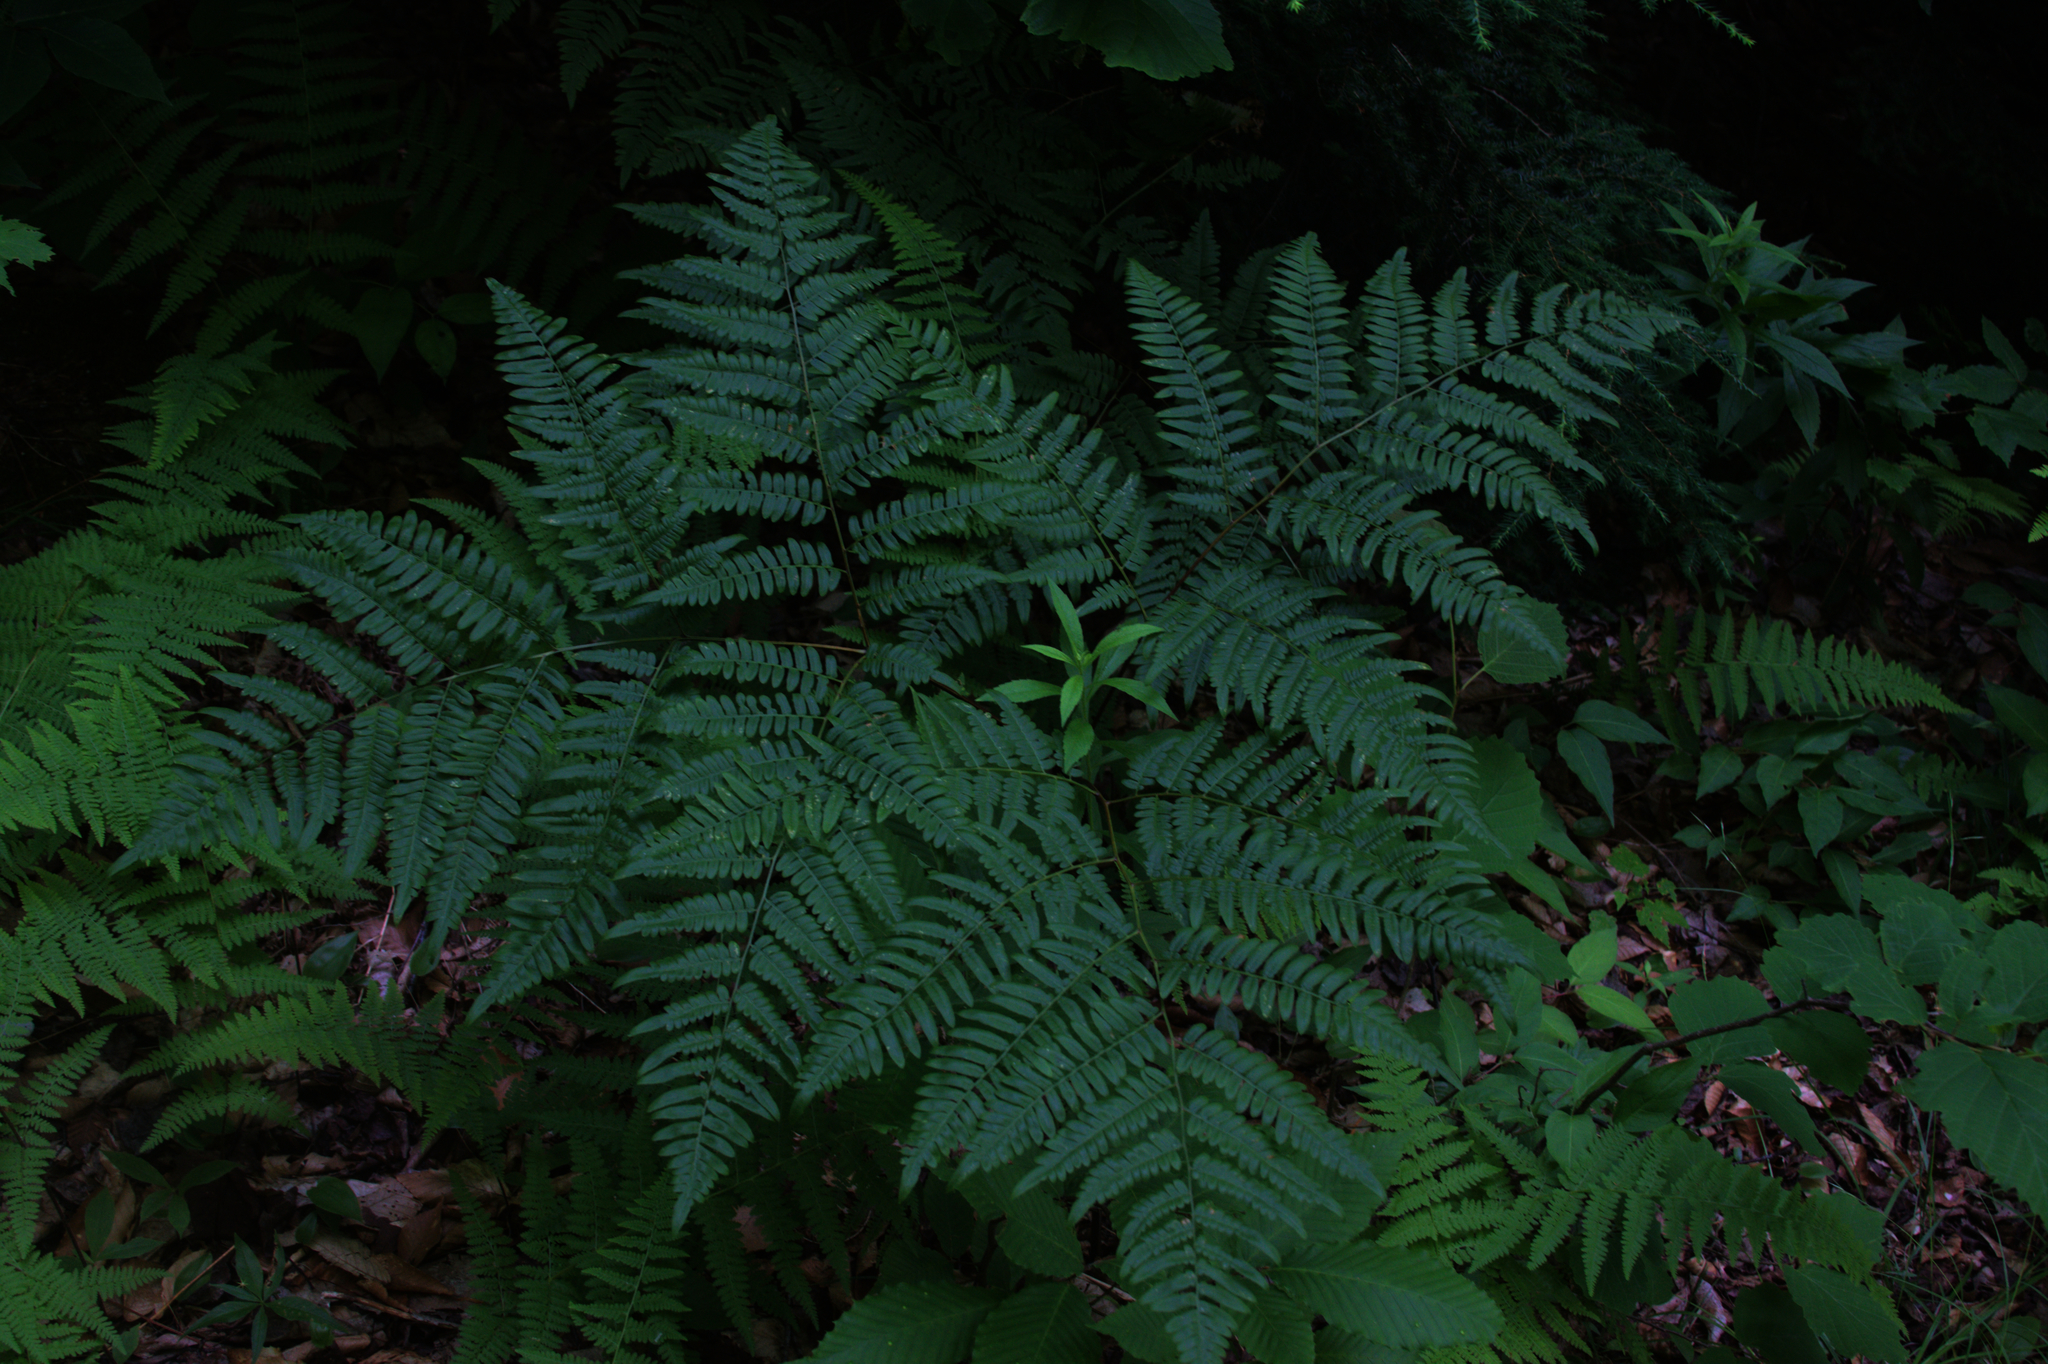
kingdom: Plantae
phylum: Tracheophyta
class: Polypodiopsida
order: Polypodiales
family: Dennstaedtiaceae
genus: Pteridium
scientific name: Pteridium aquilinum
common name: Bracken
